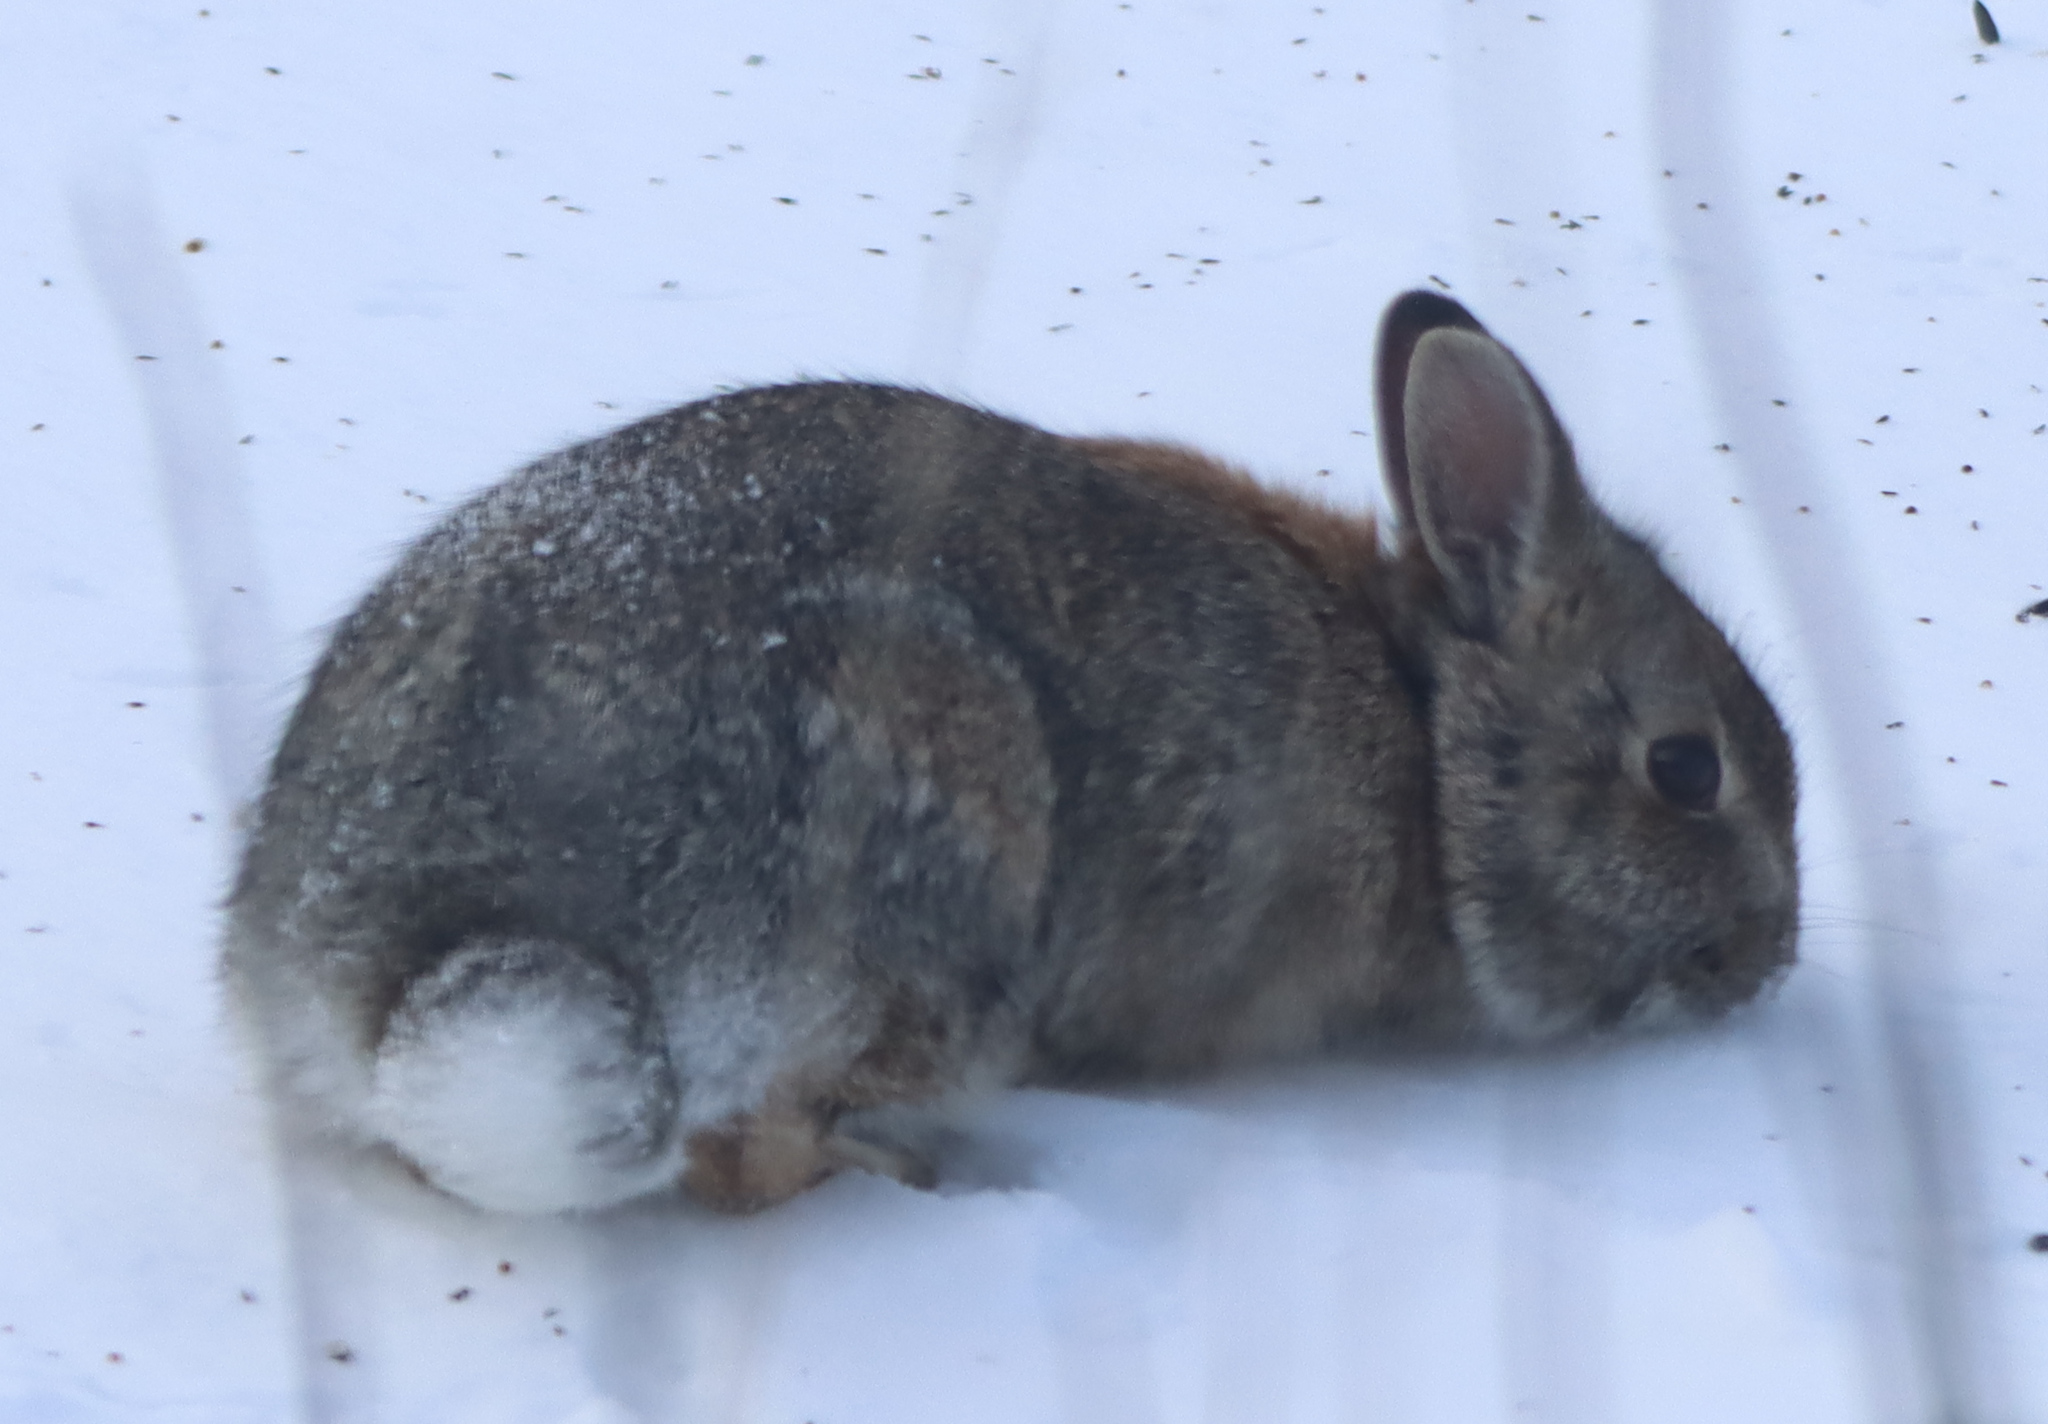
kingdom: Animalia
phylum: Chordata
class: Mammalia
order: Lagomorpha
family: Leporidae
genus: Sylvilagus
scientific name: Sylvilagus floridanus
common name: Eastern cottontail
